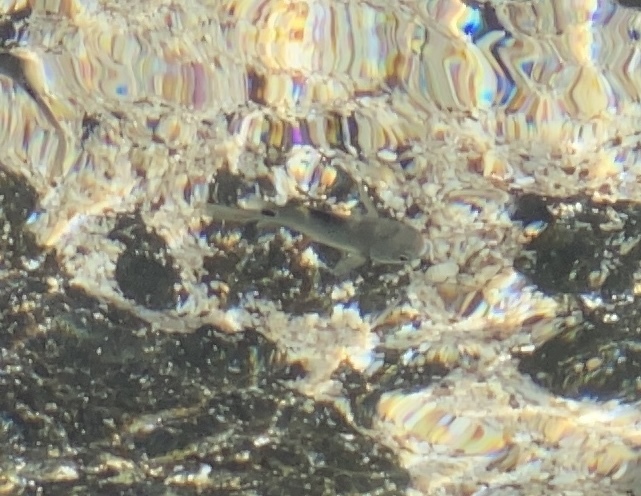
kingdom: Animalia
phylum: Chordata
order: Perciformes
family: Pomacentridae
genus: Abudefduf
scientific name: Abudefduf sordidus
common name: Blackspot sergeant
